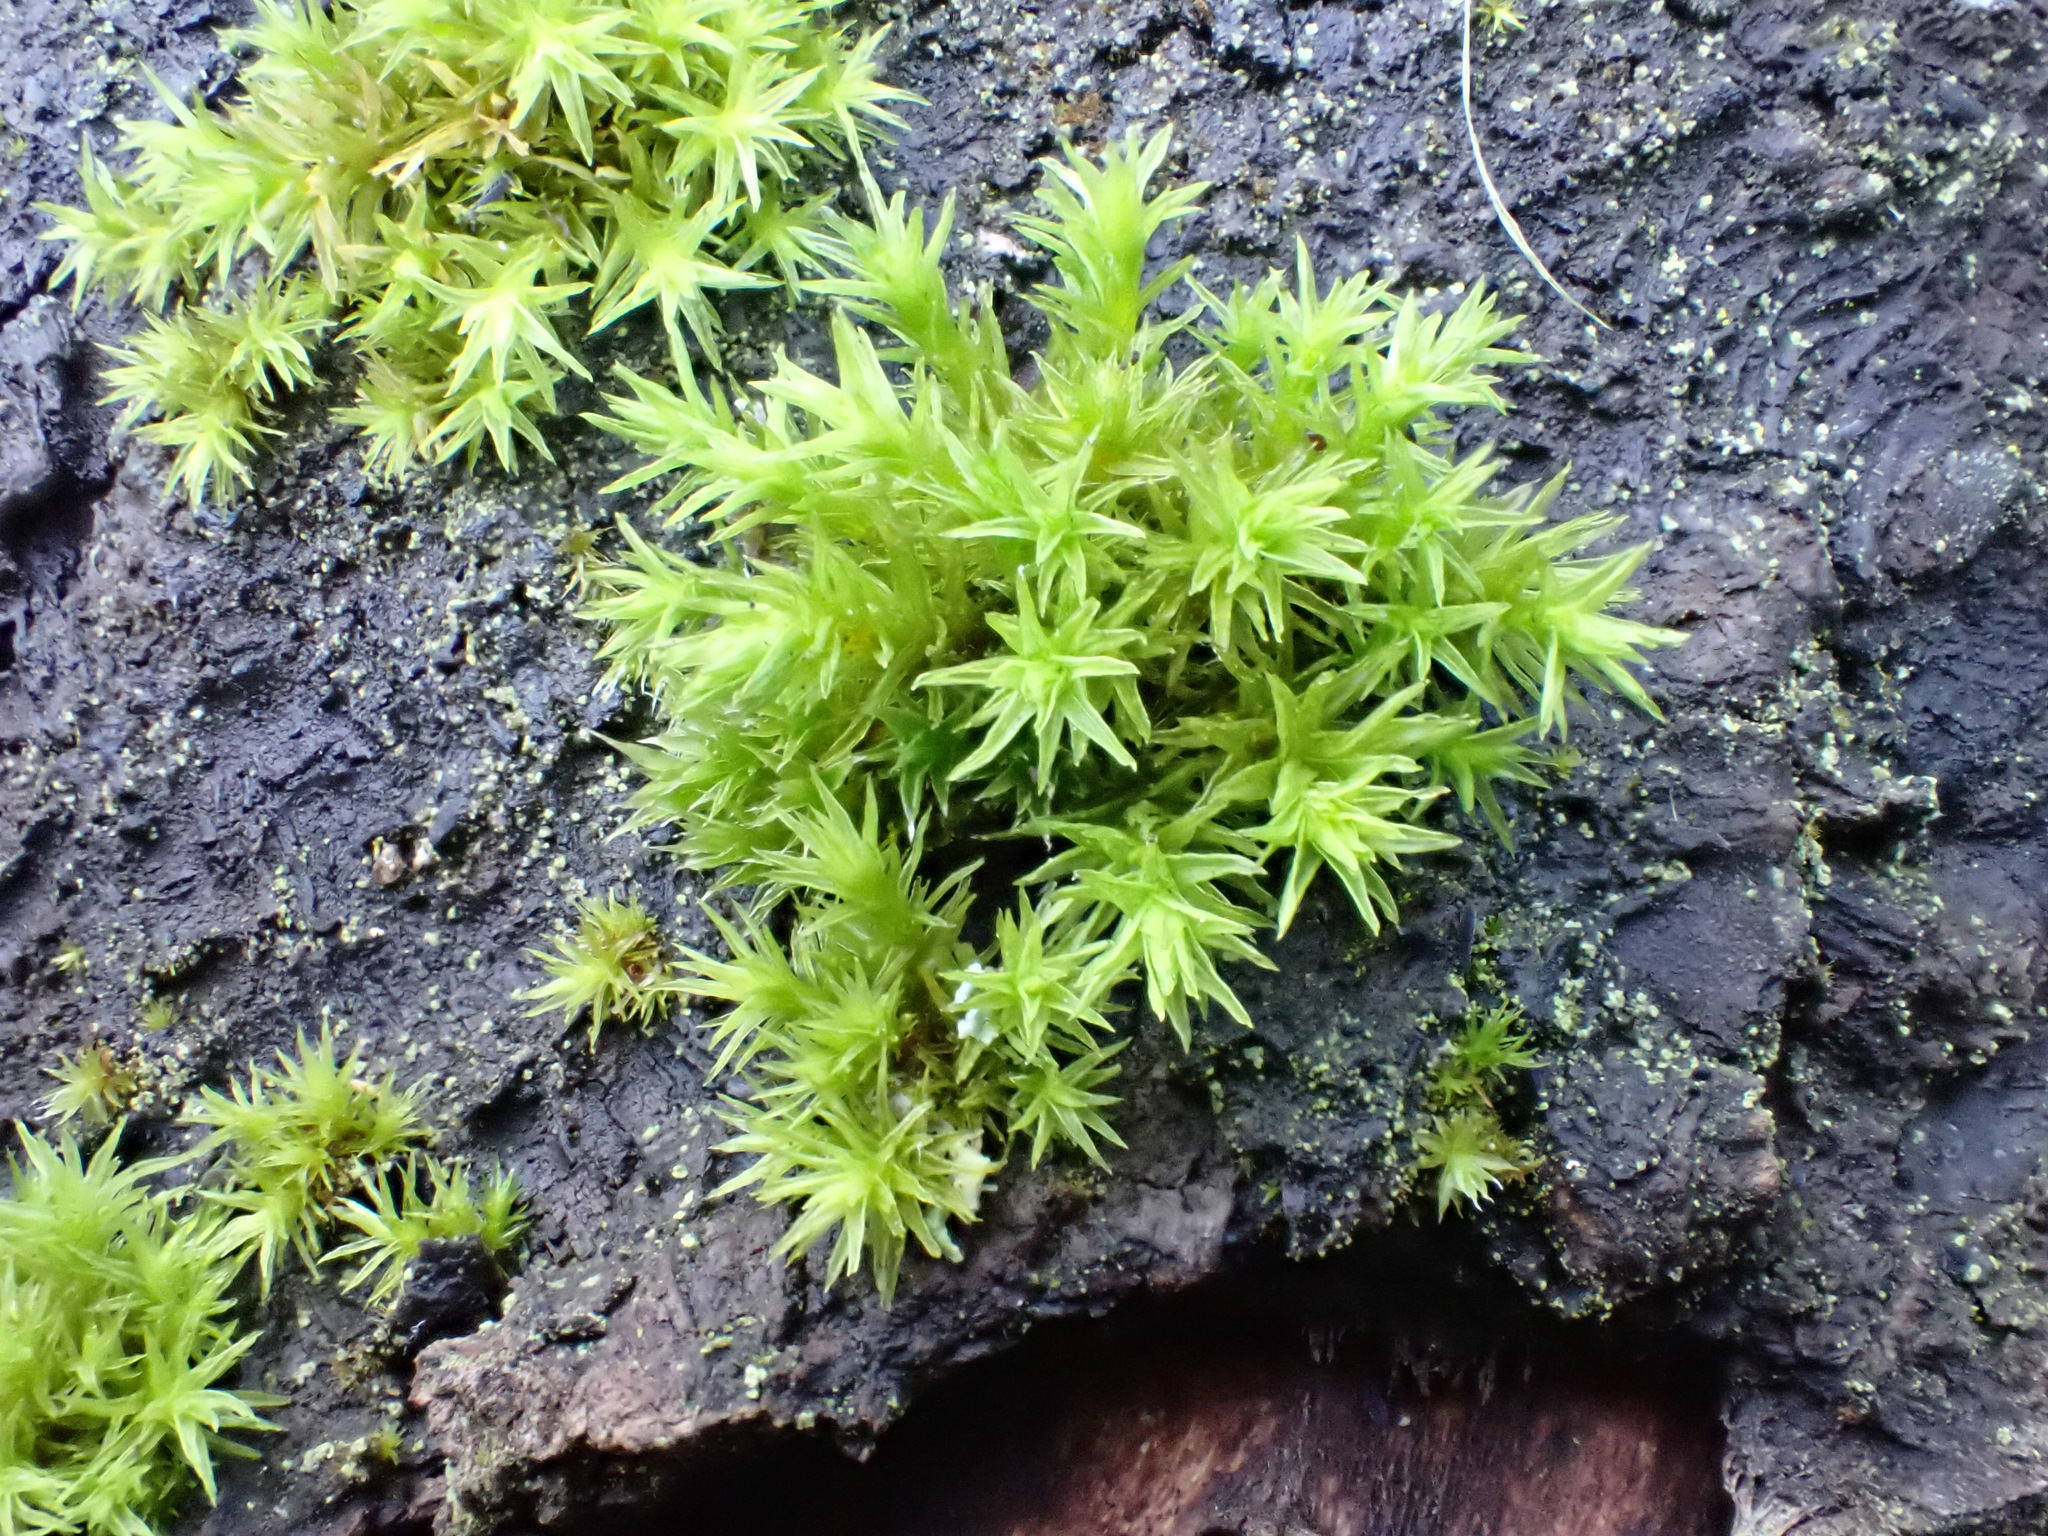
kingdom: Plantae
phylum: Bryophyta
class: Bryopsida
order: Orthotrichales
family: Orthotrichaceae
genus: Lewinskya
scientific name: Lewinskya affinis
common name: Wood bristle-moss
